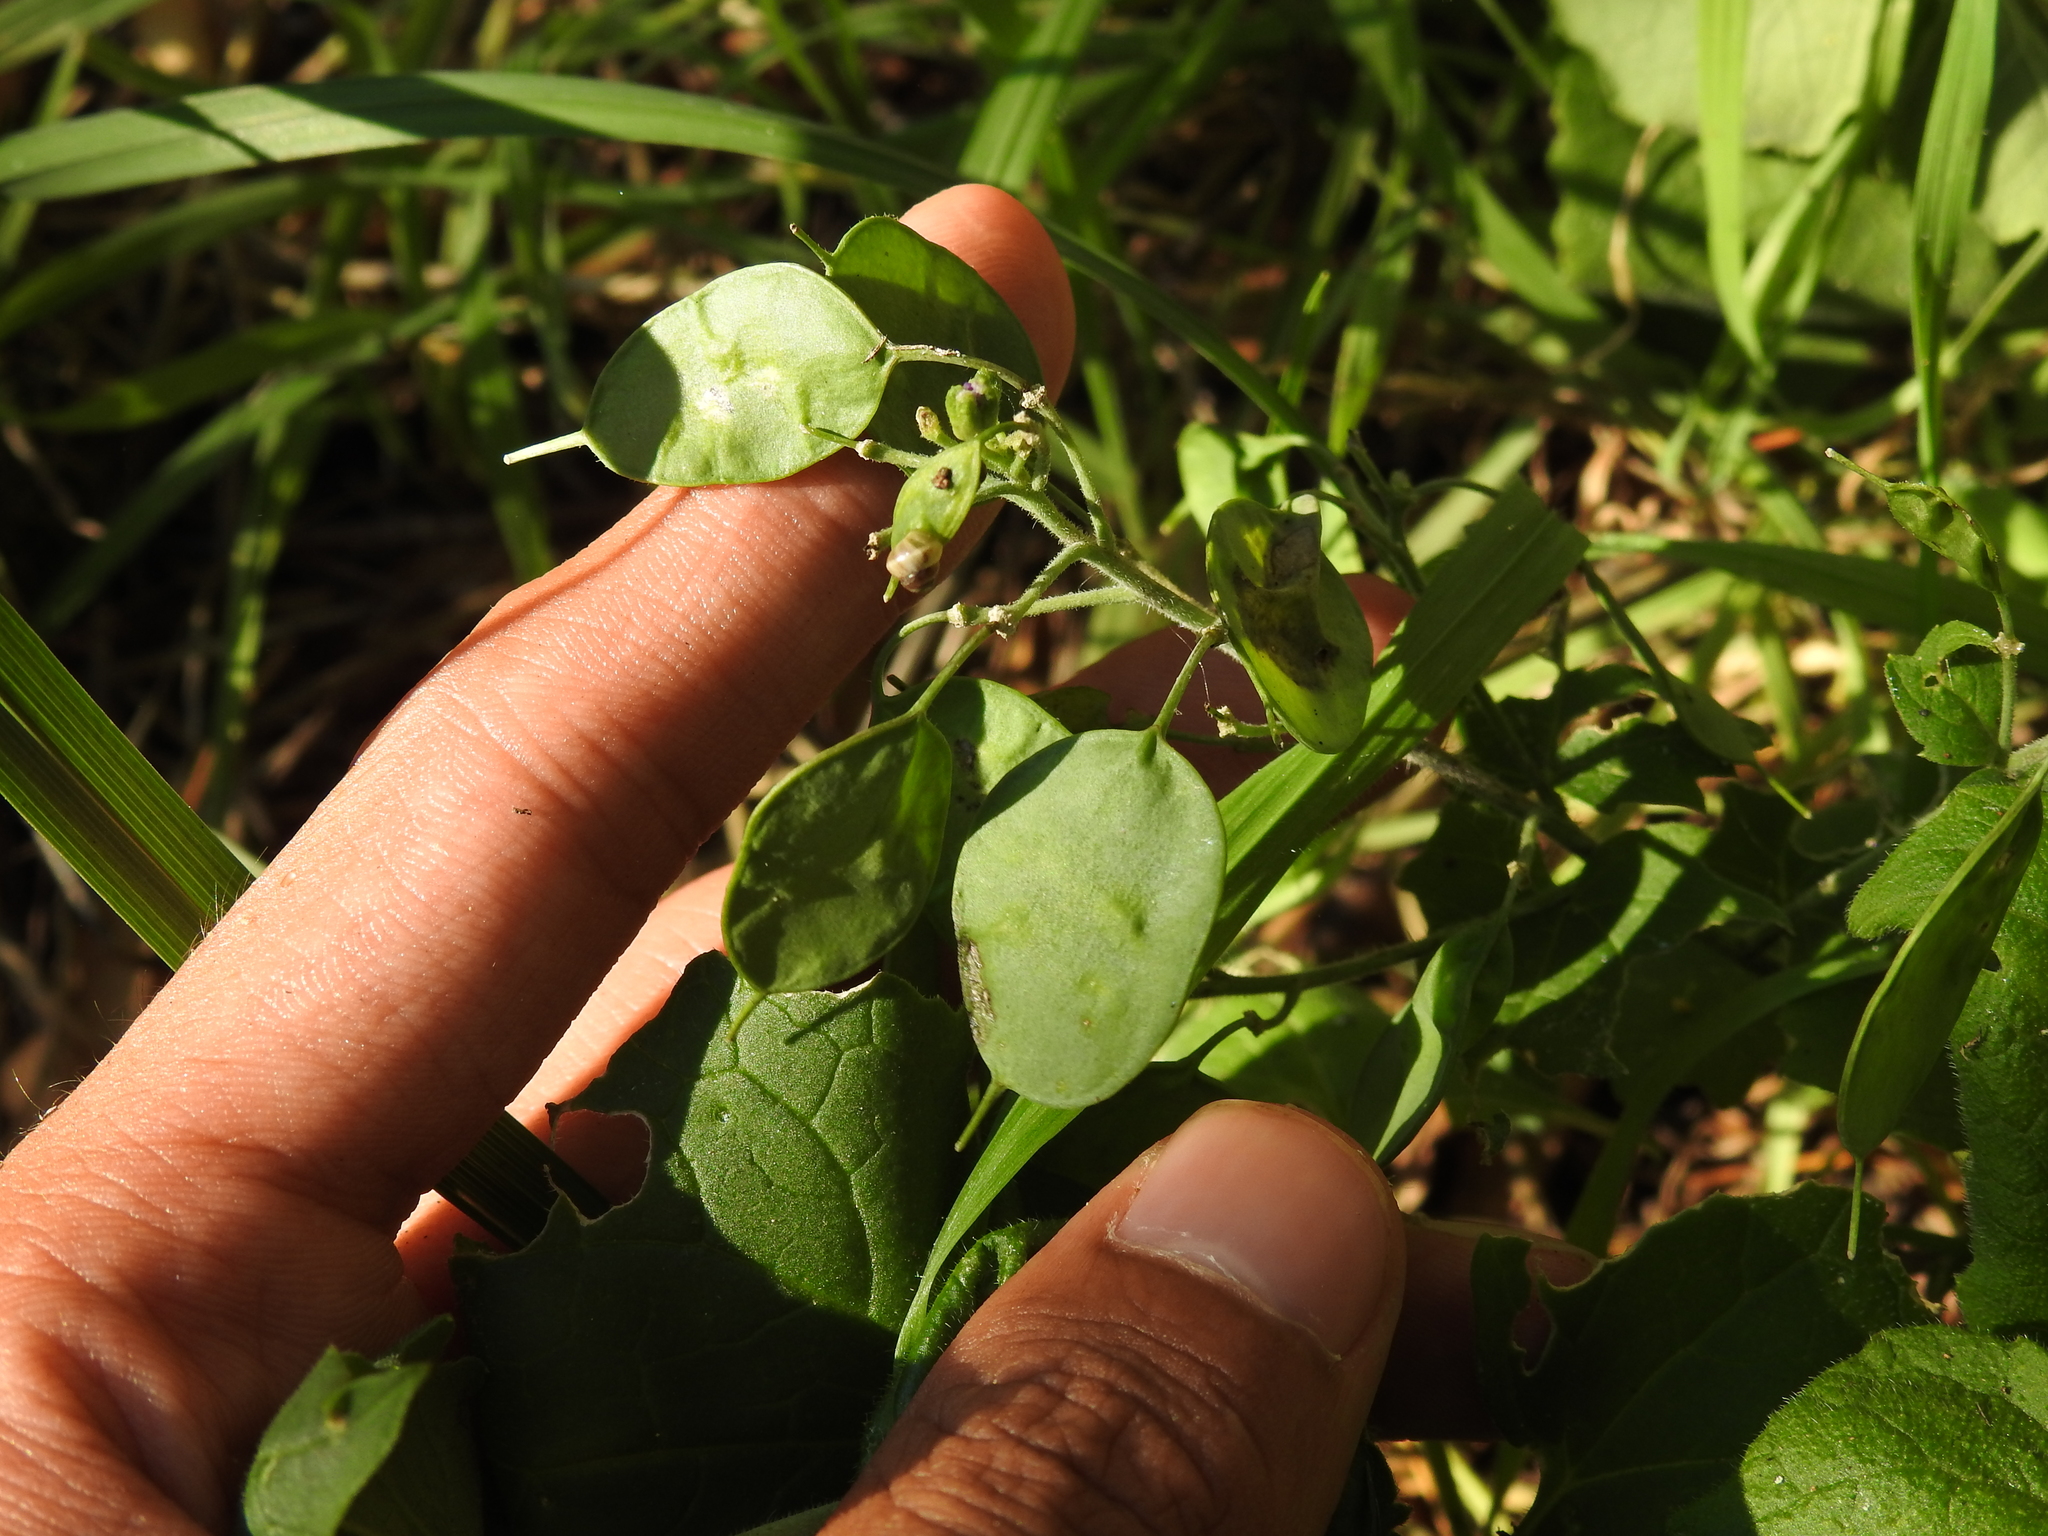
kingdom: Plantae
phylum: Tracheophyta
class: Magnoliopsida
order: Brassicales
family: Brassicaceae
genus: Lunaria
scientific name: Lunaria annua
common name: Honesty
